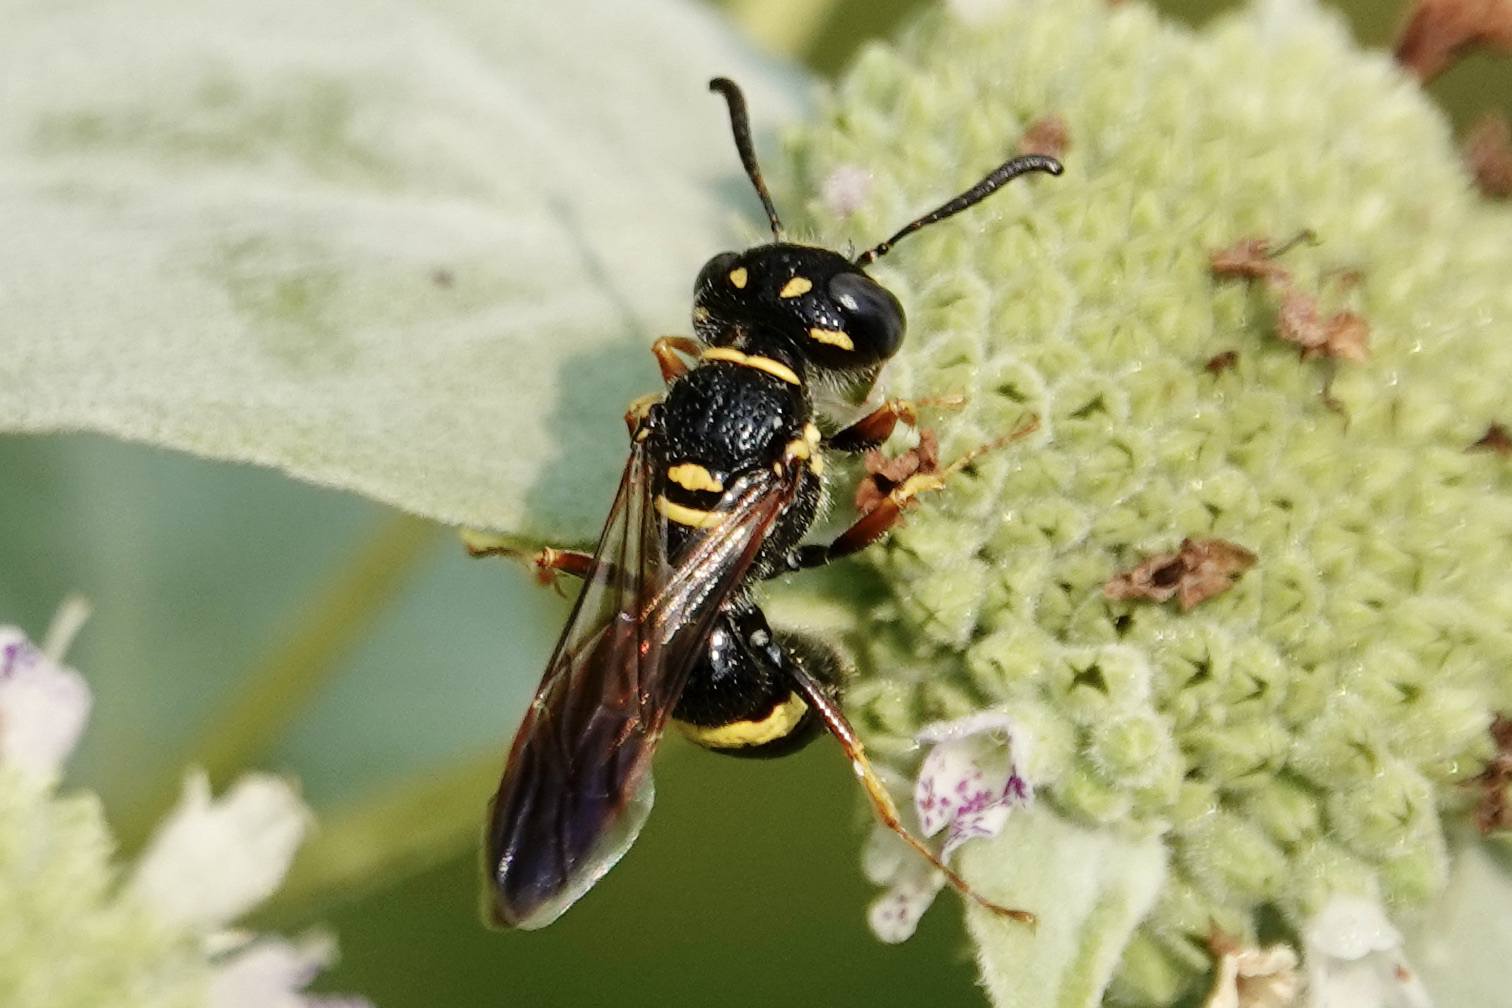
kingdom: Animalia
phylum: Arthropoda
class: Insecta
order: Hymenoptera
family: Crabronidae
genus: Philanthus
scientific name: Philanthus gibbosus
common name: Humped beewolf
